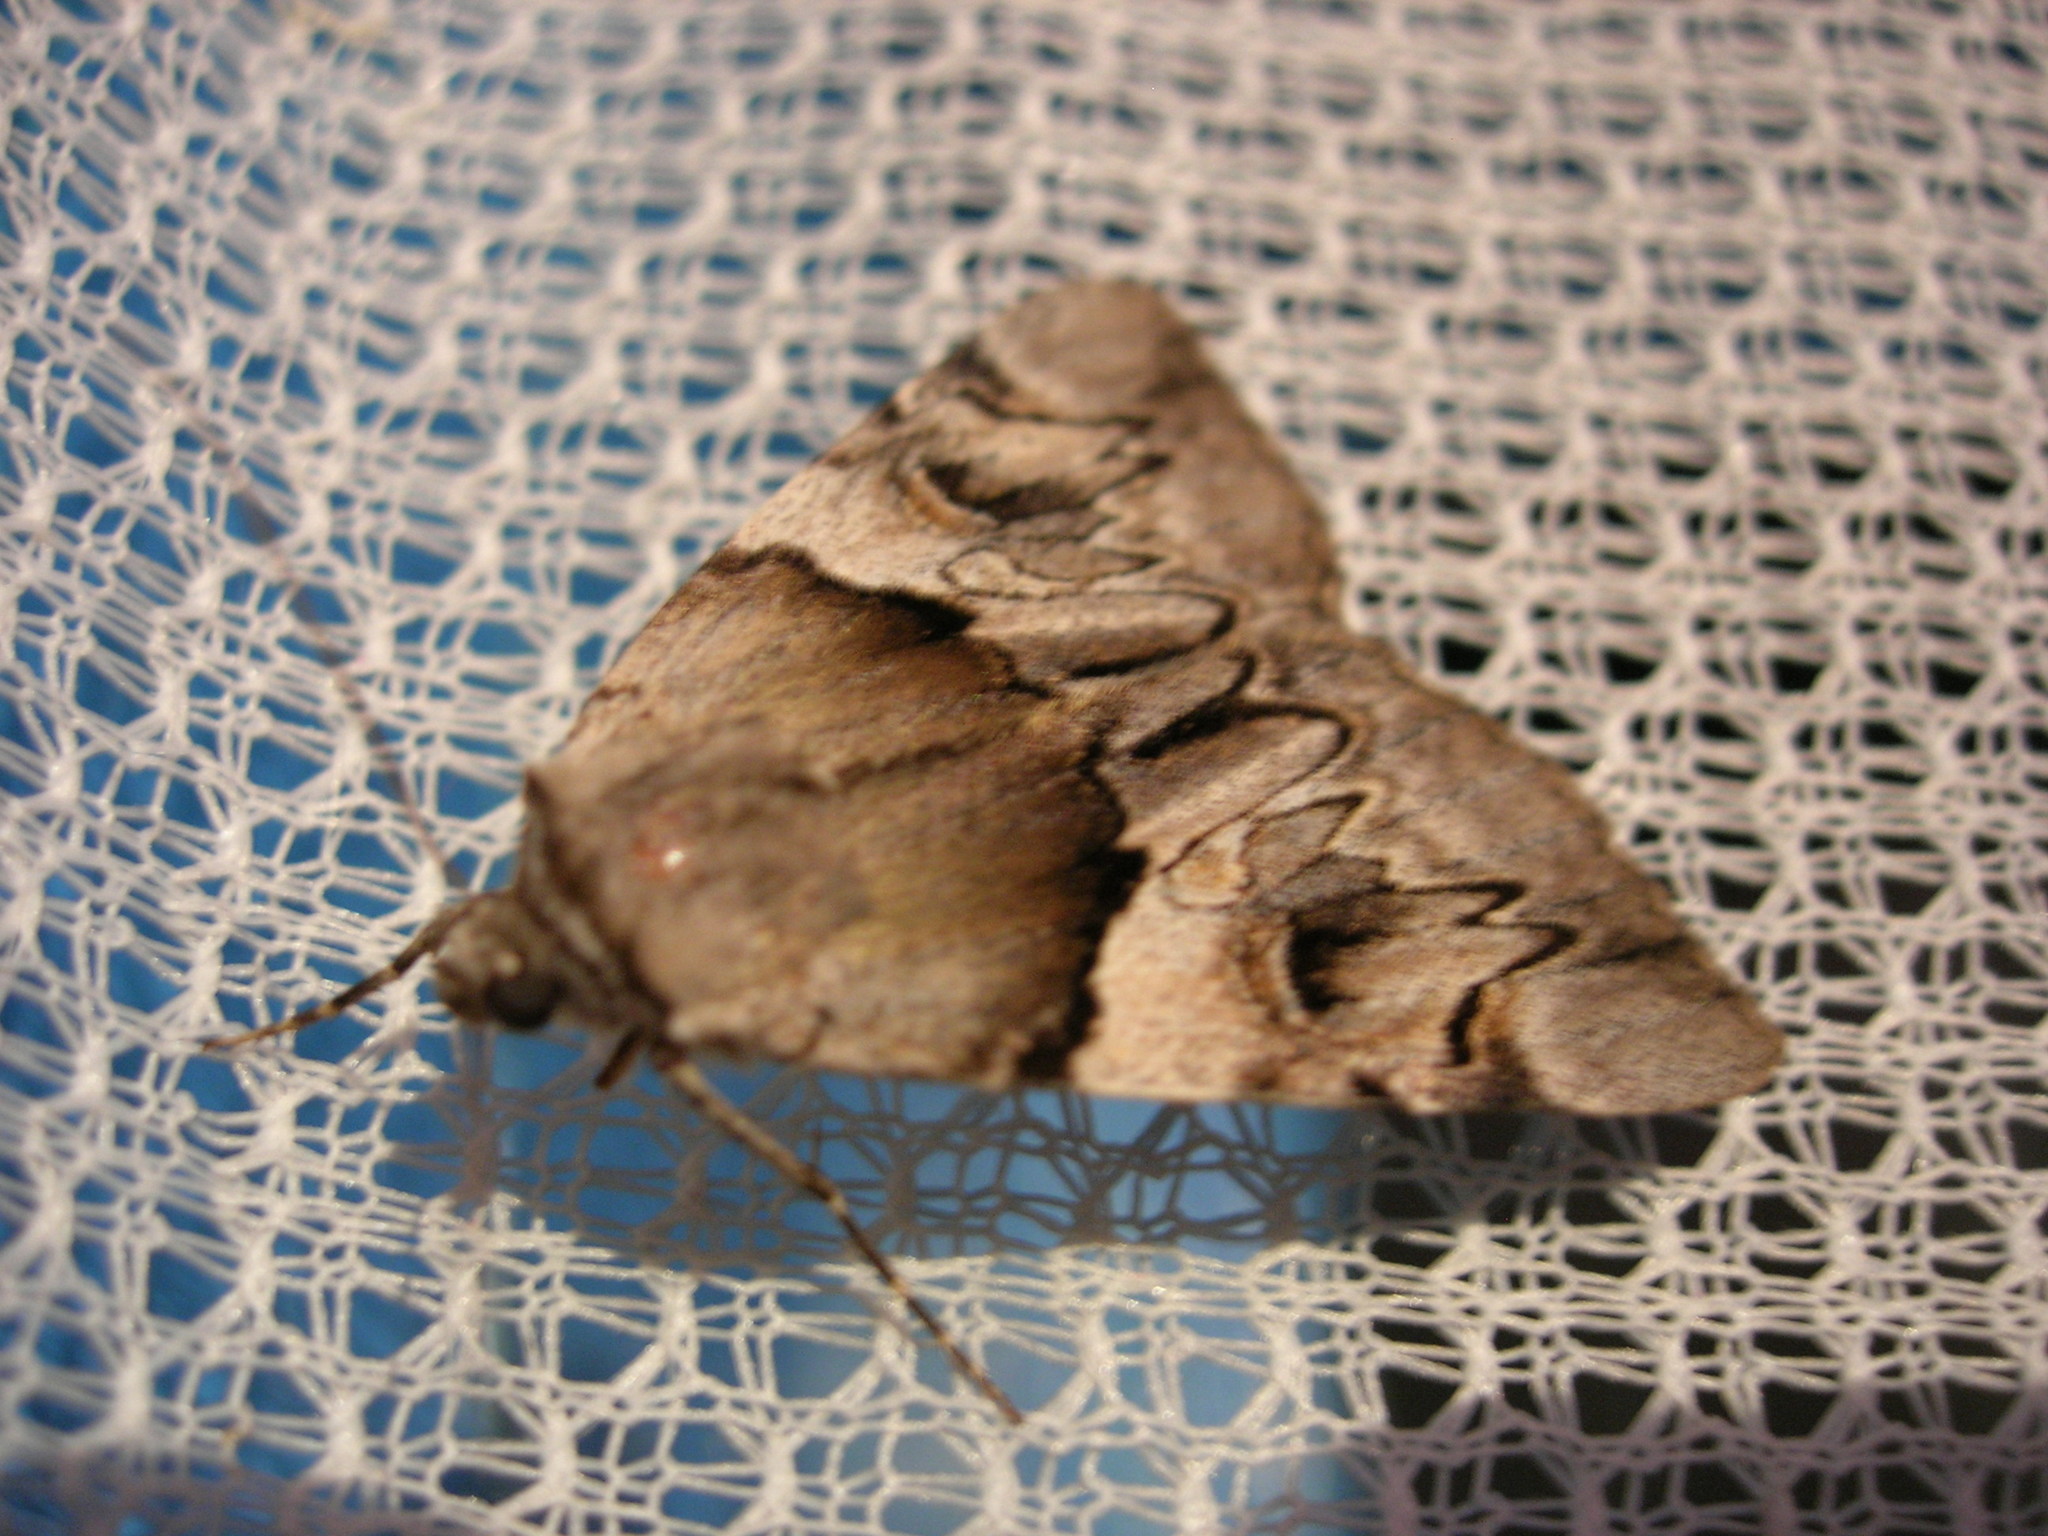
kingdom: Animalia
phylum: Arthropoda
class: Insecta
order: Lepidoptera
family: Erebidae
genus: Catocala
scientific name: Catocala fulminea
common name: Yellow bands underwing
